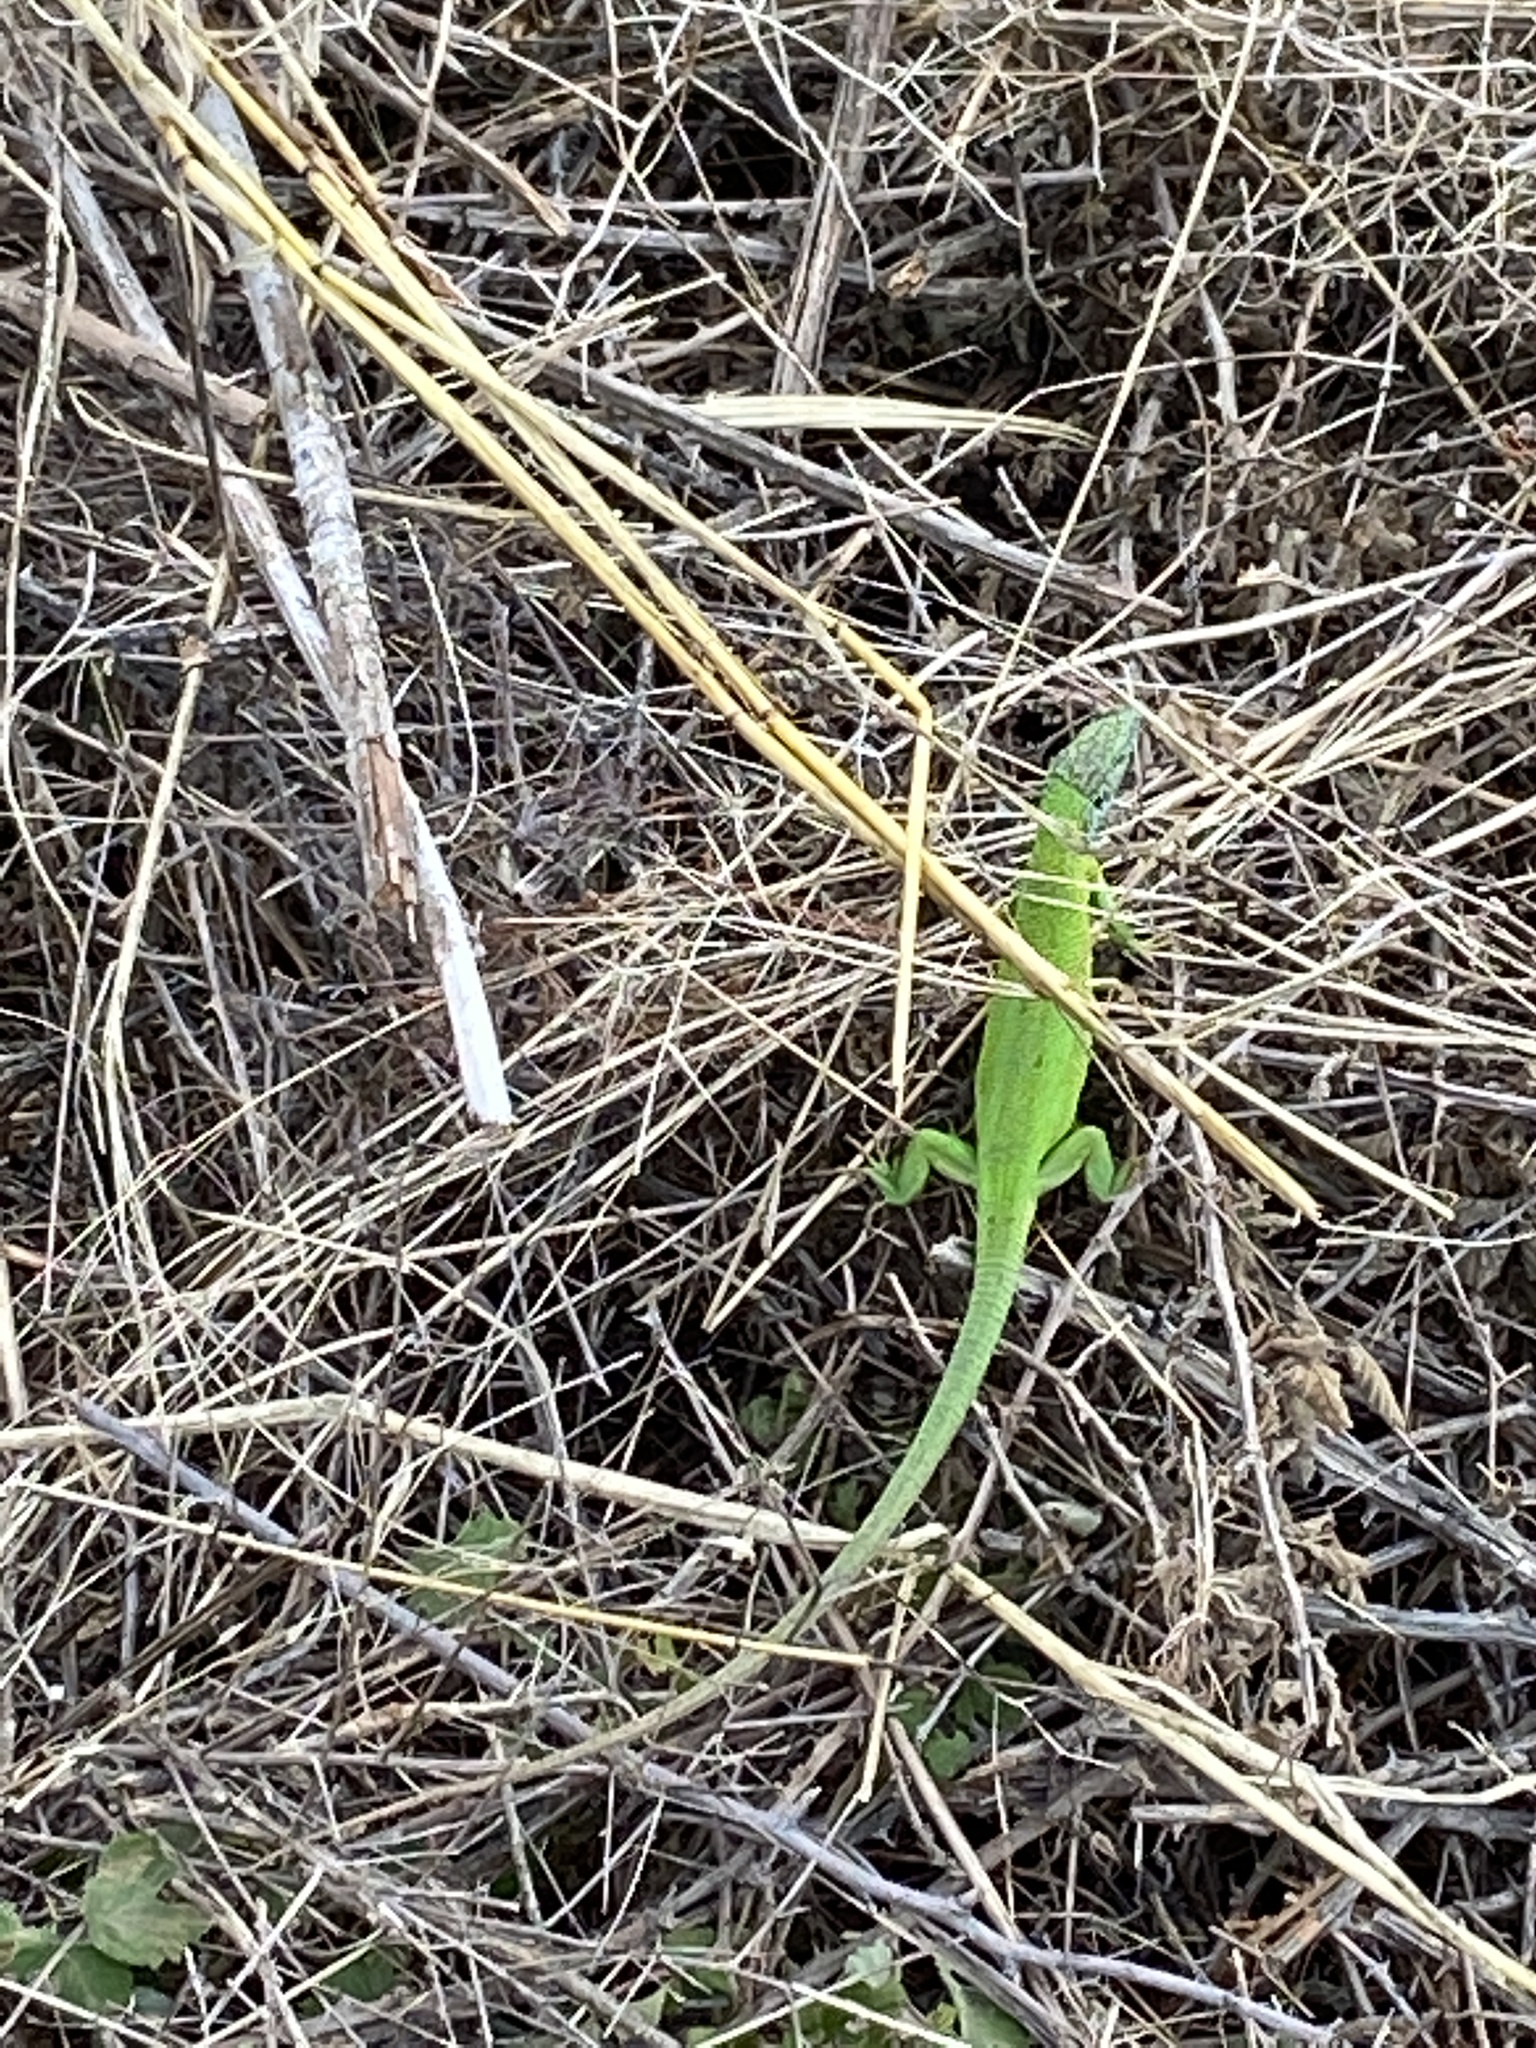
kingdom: Animalia
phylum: Chordata
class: Squamata
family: Lacertidae
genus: Lacerta
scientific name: Lacerta viridis
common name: European green lizard
